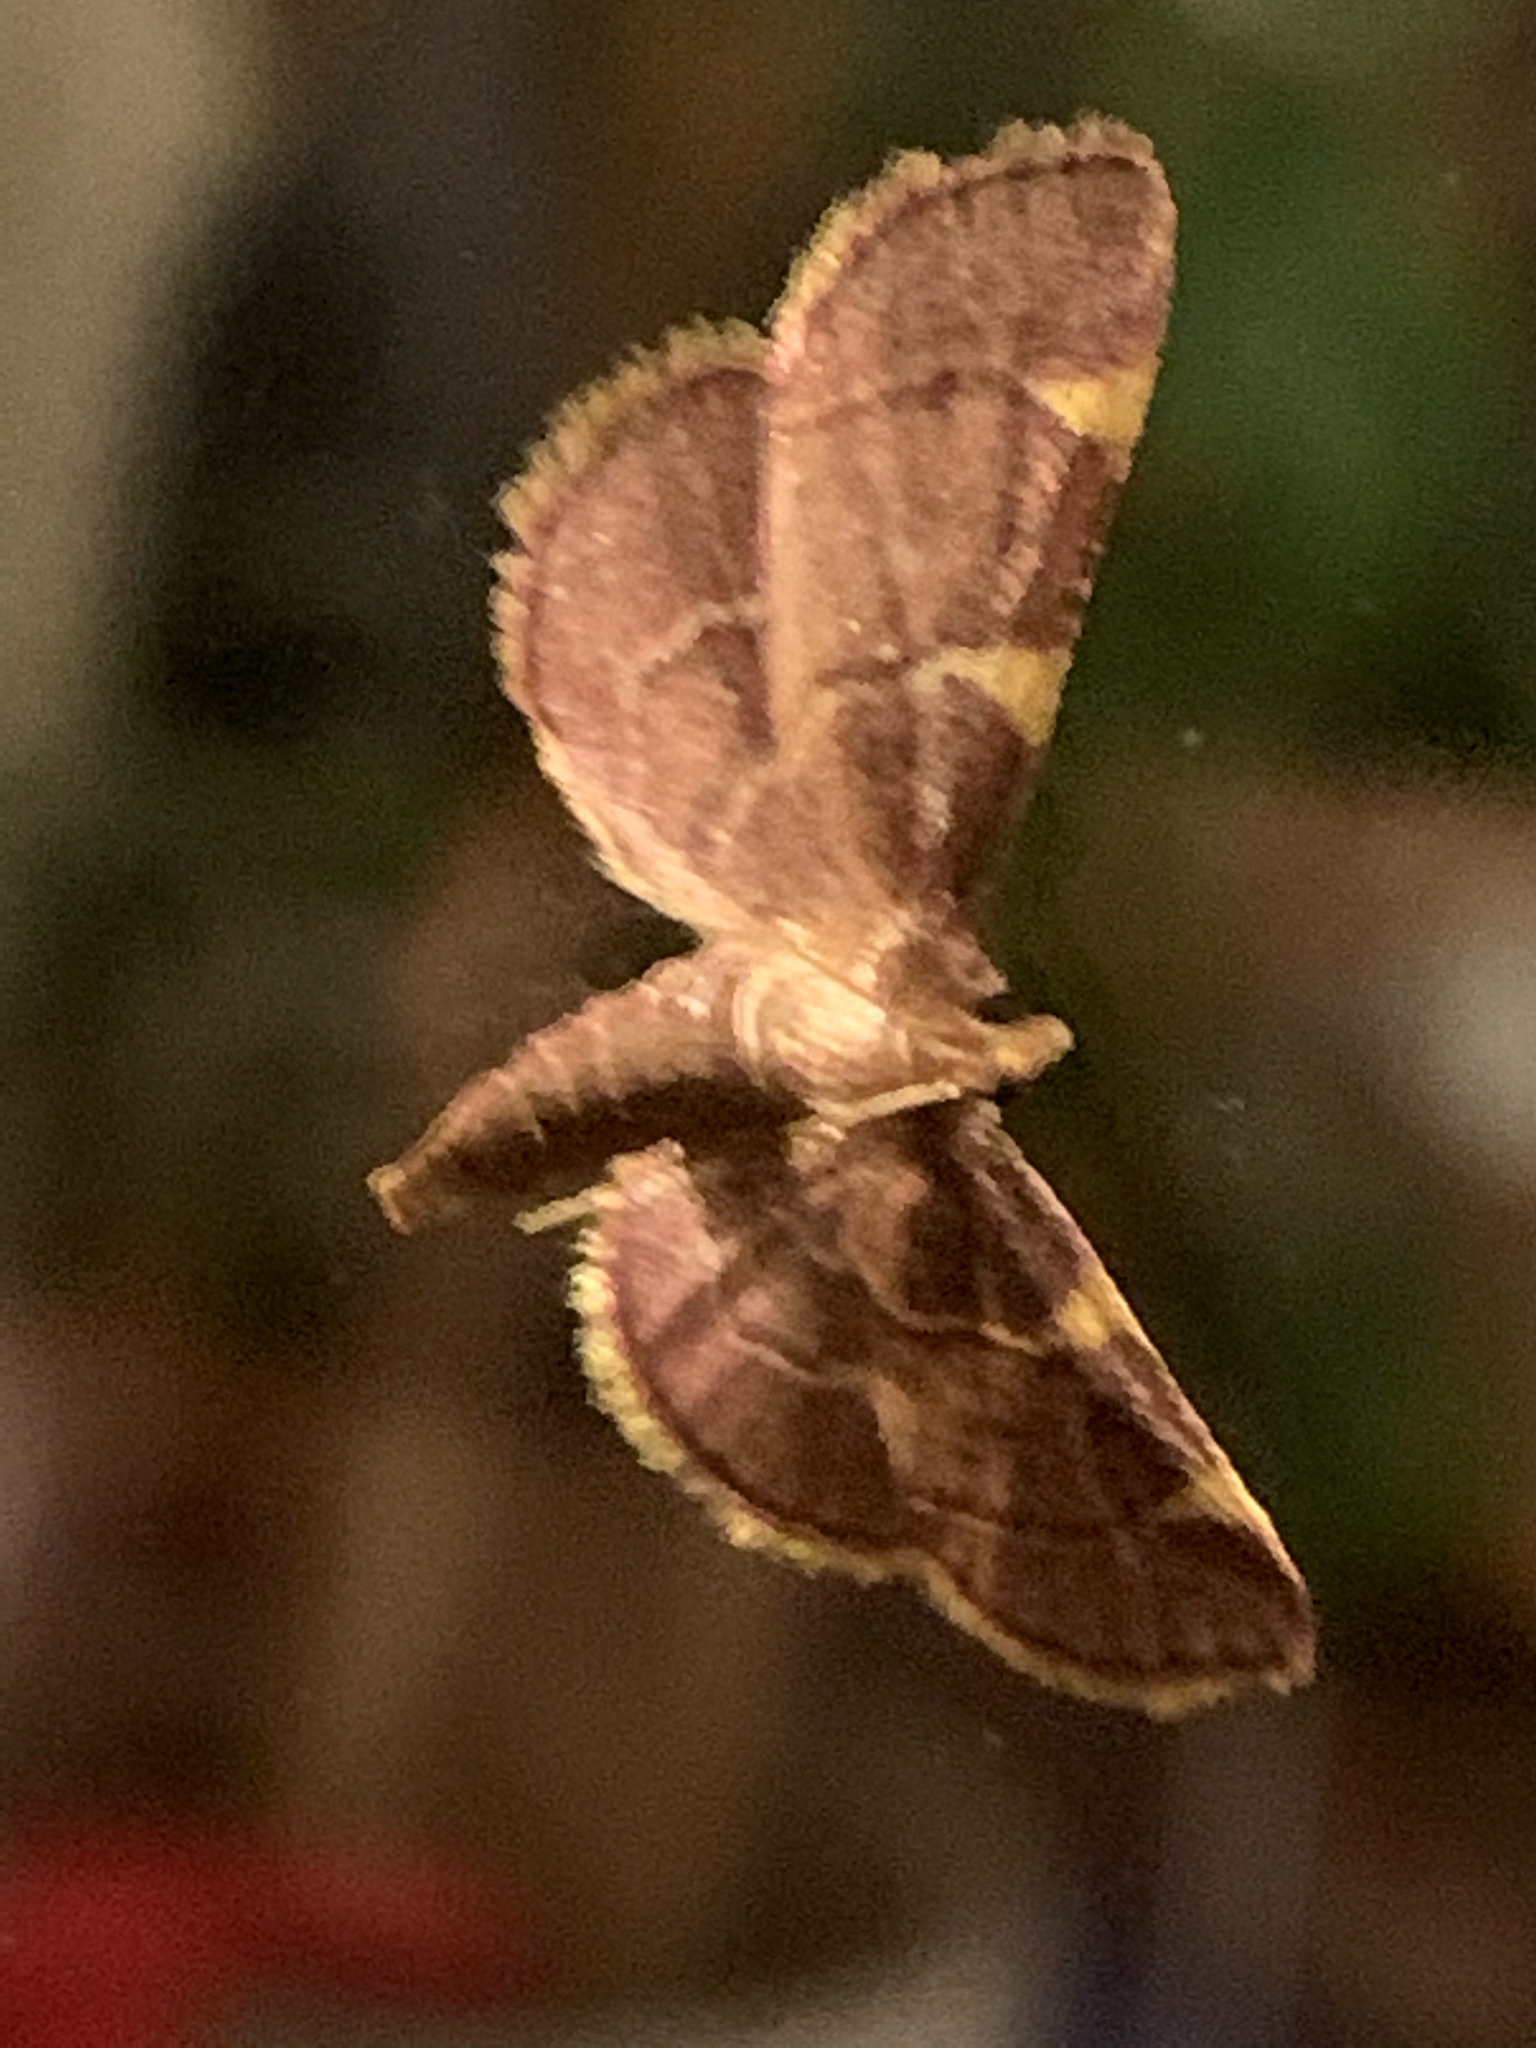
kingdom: Animalia
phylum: Arthropoda
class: Insecta
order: Lepidoptera
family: Pyralidae
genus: Hypsopygia
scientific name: Hypsopygia olinalis
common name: Yellow-fringed dolichomia moth
